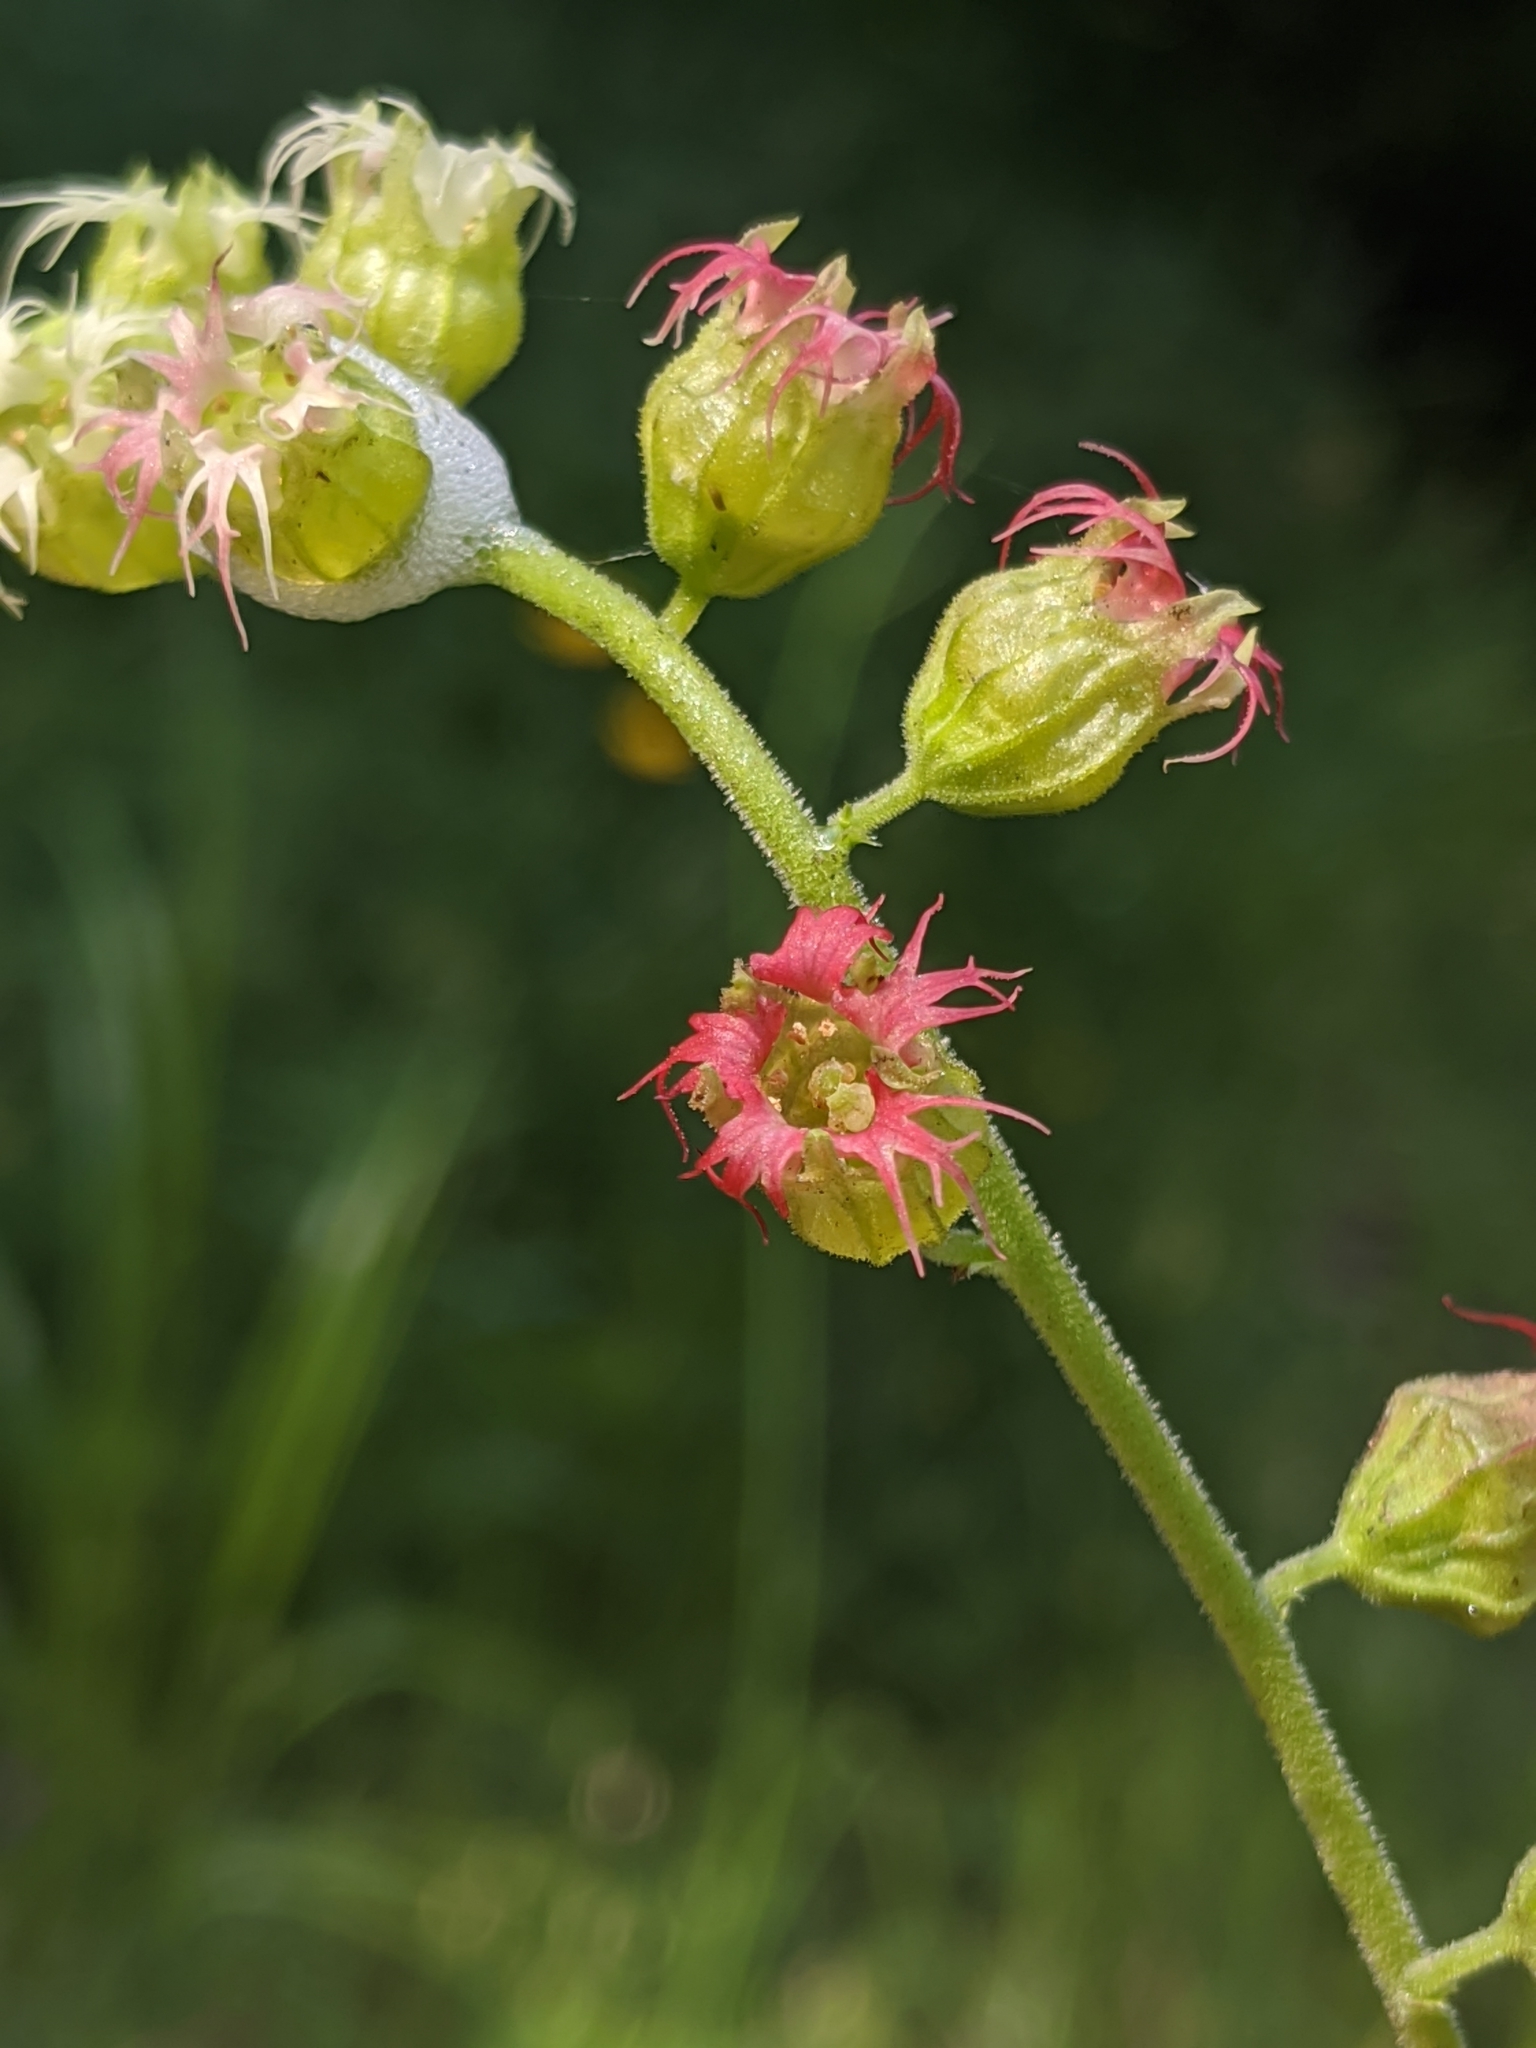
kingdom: Plantae
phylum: Tracheophyta
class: Magnoliopsida
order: Saxifragales
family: Saxifragaceae
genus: Tellima
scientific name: Tellima grandiflora
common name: Fringecups
